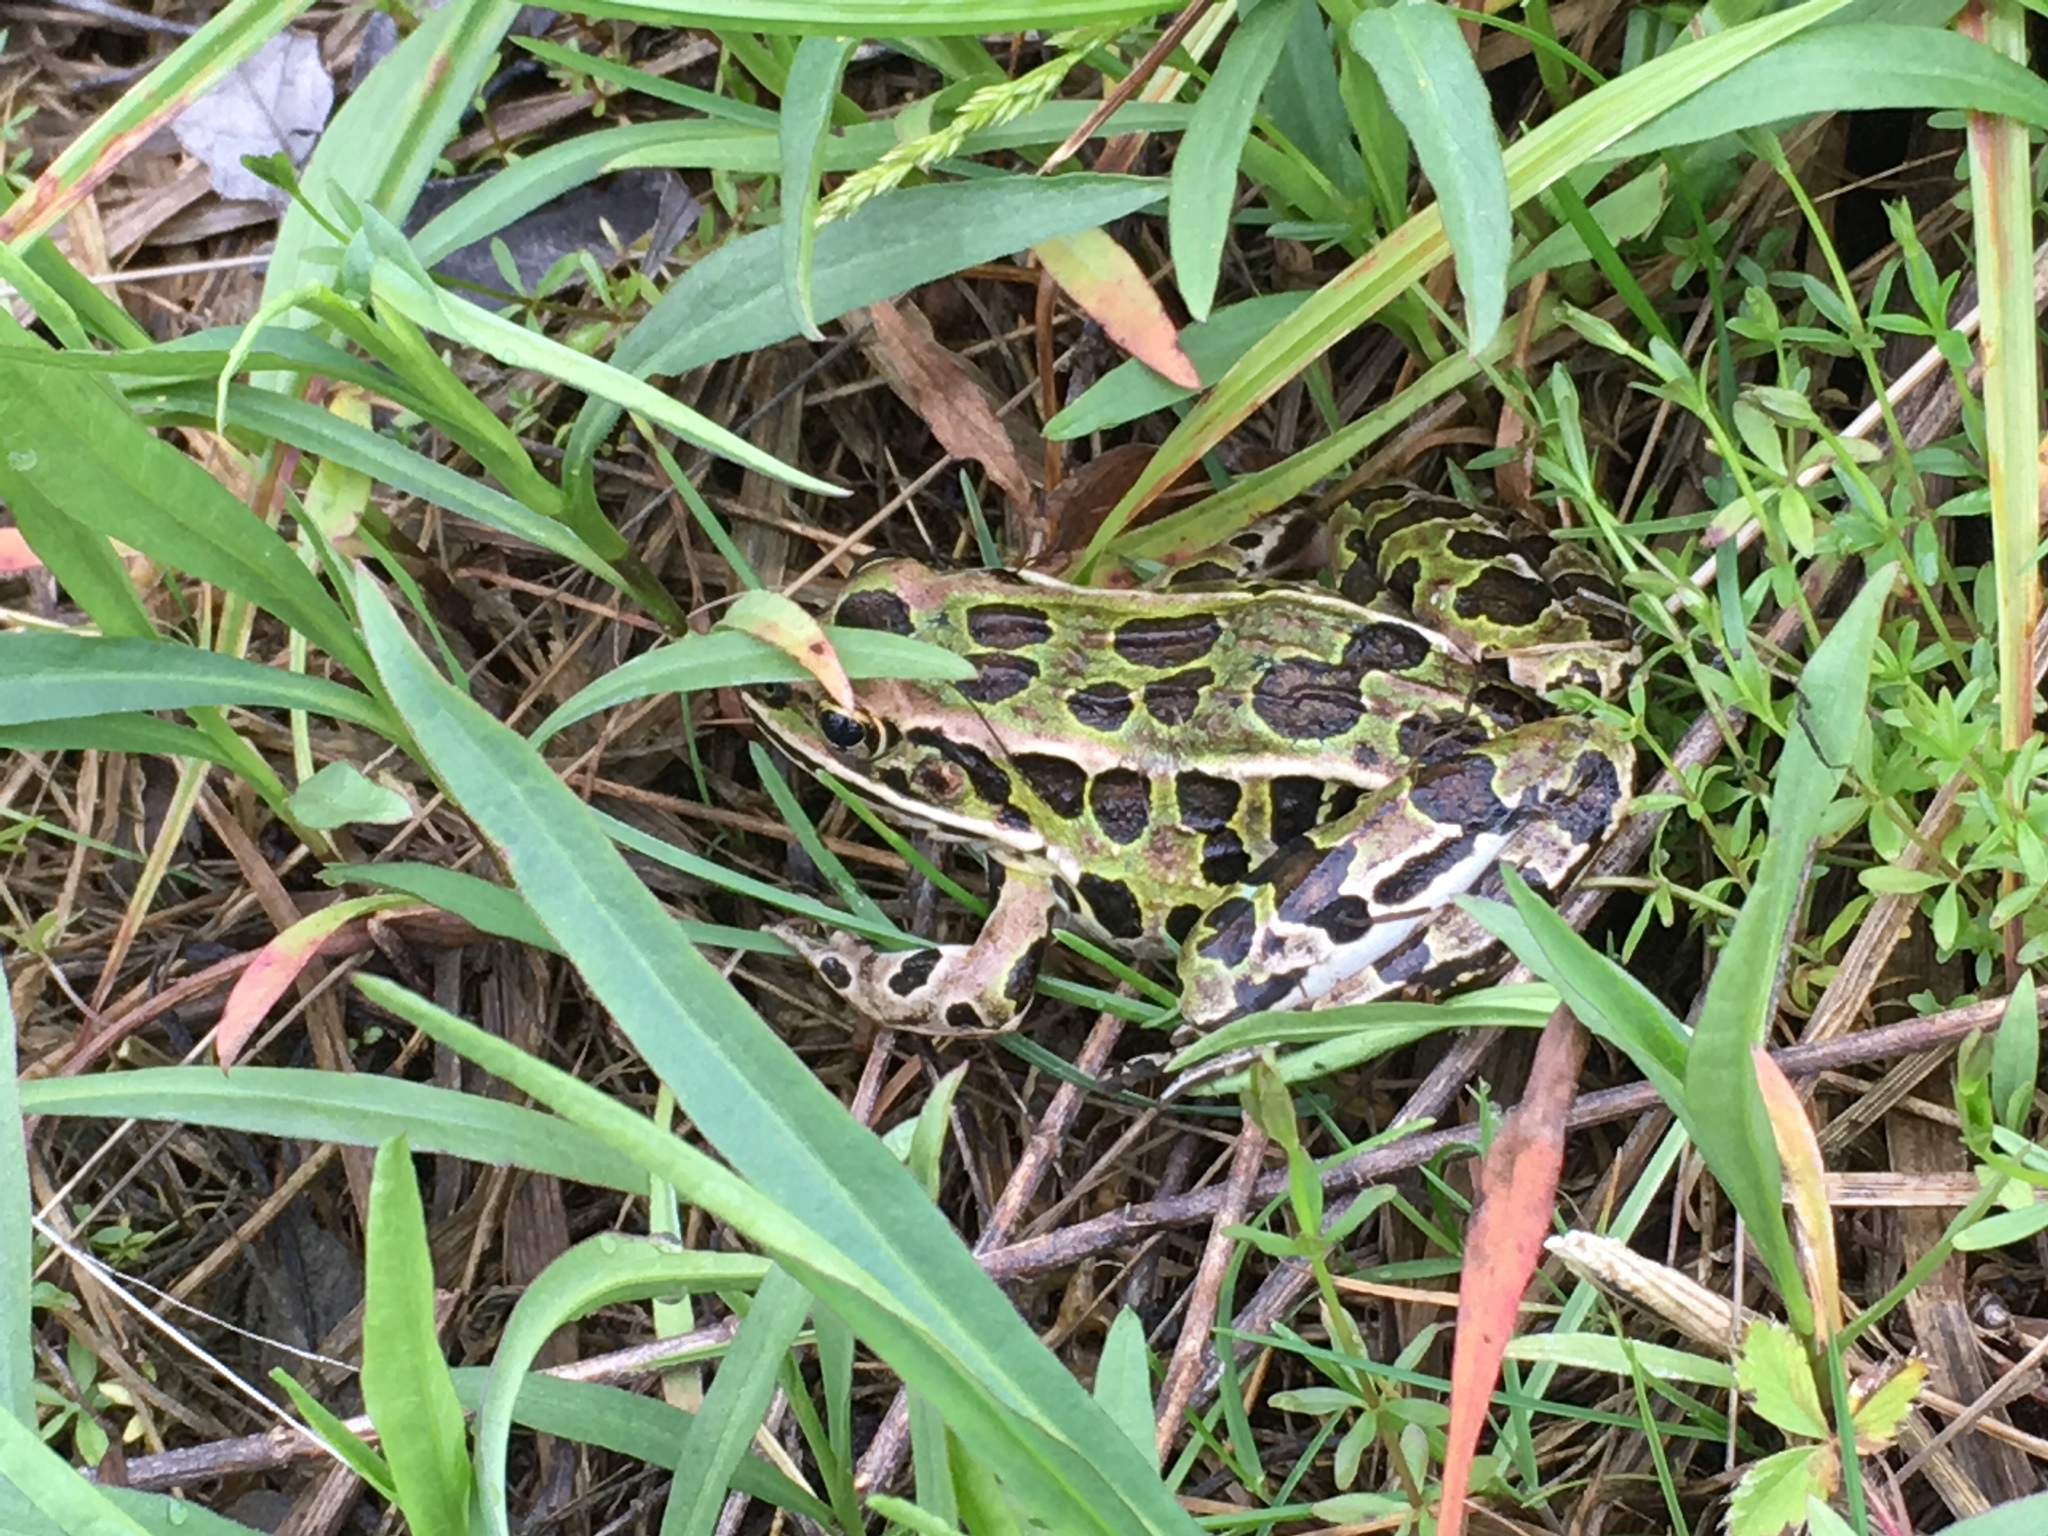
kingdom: Animalia
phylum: Chordata
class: Amphibia
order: Anura
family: Ranidae
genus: Lithobates
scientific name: Lithobates pipiens
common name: Northern leopard frog
